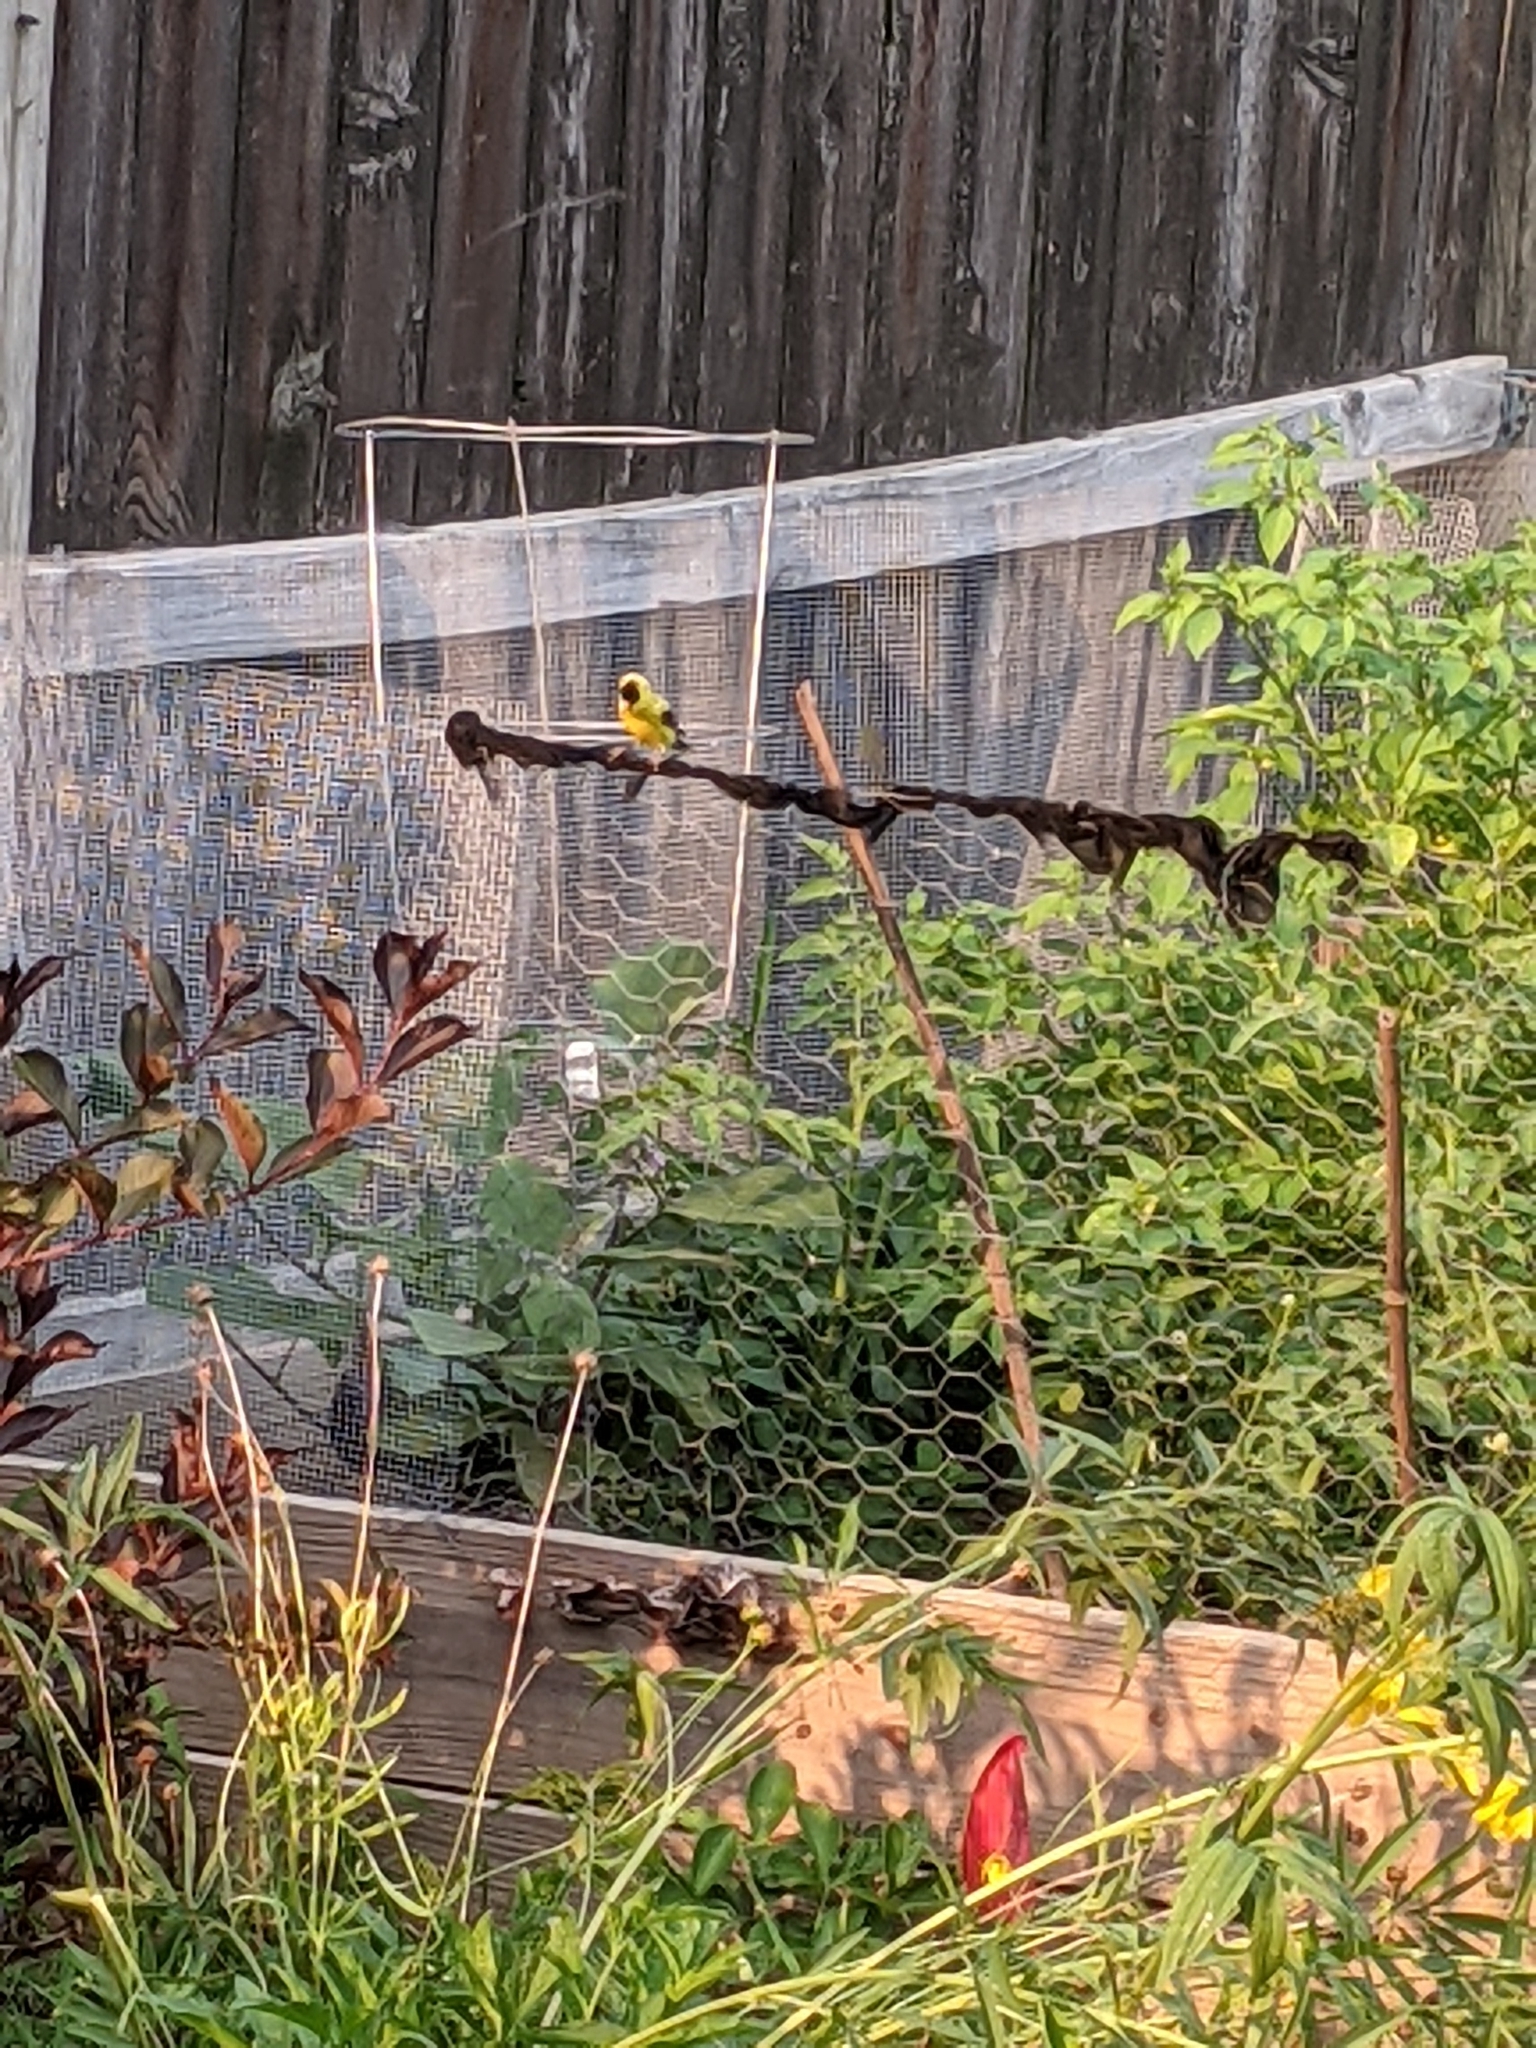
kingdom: Animalia
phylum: Chordata
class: Aves
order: Passeriformes
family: Fringillidae
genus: Spinus
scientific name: Spinus tristis
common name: American goldfinch
